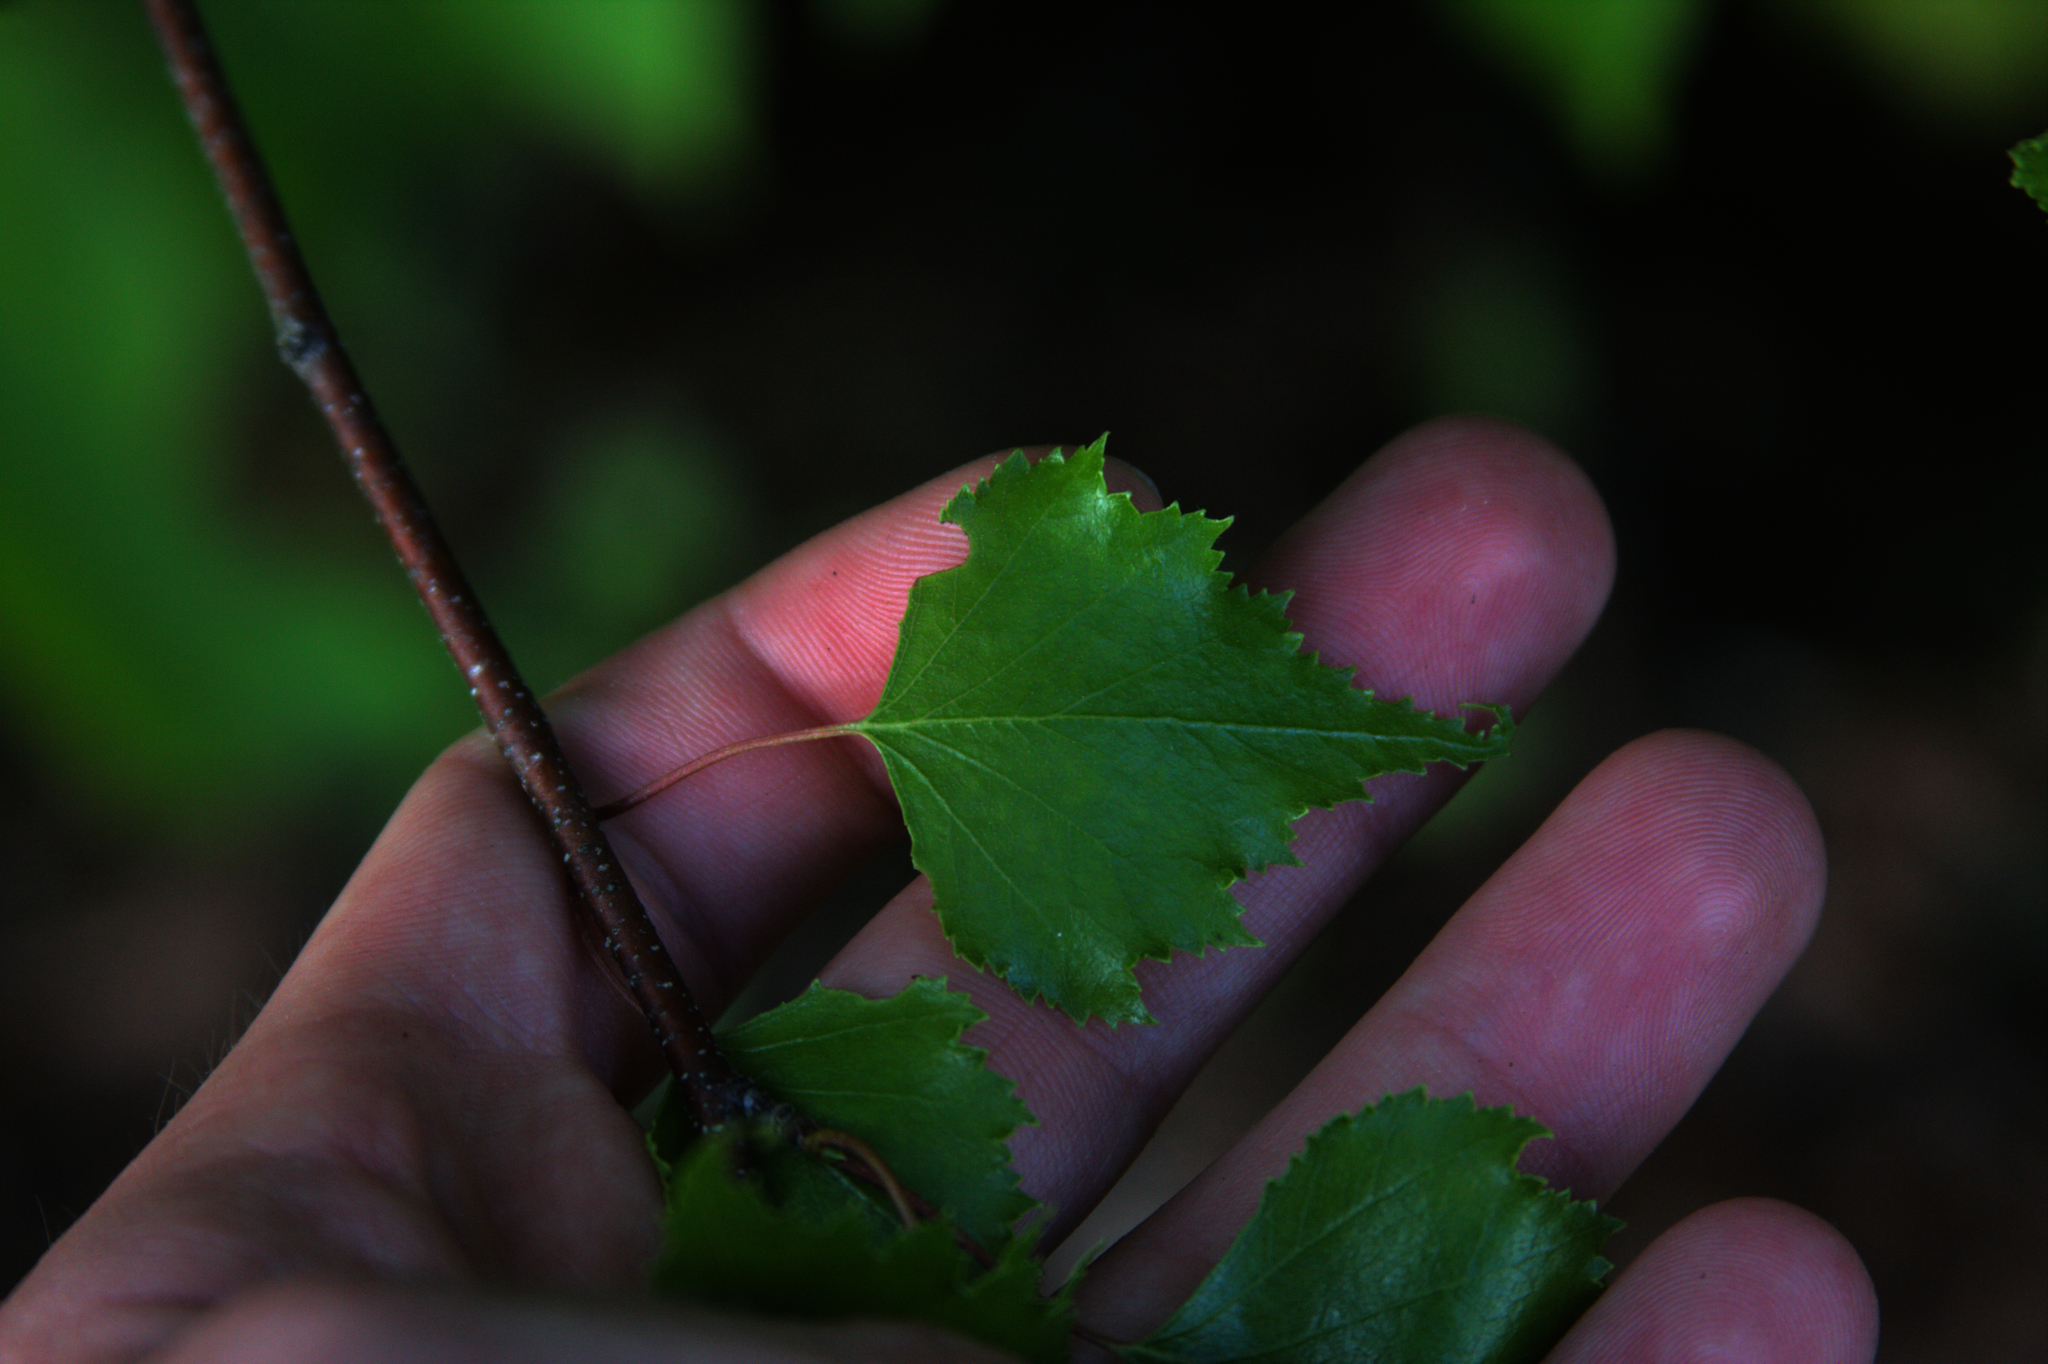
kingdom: Plantae
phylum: Tracheophyta
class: Magnoliopsida
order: Fagales
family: Betulaceae
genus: Betula
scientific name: Betula populifolia
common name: Fire birch
